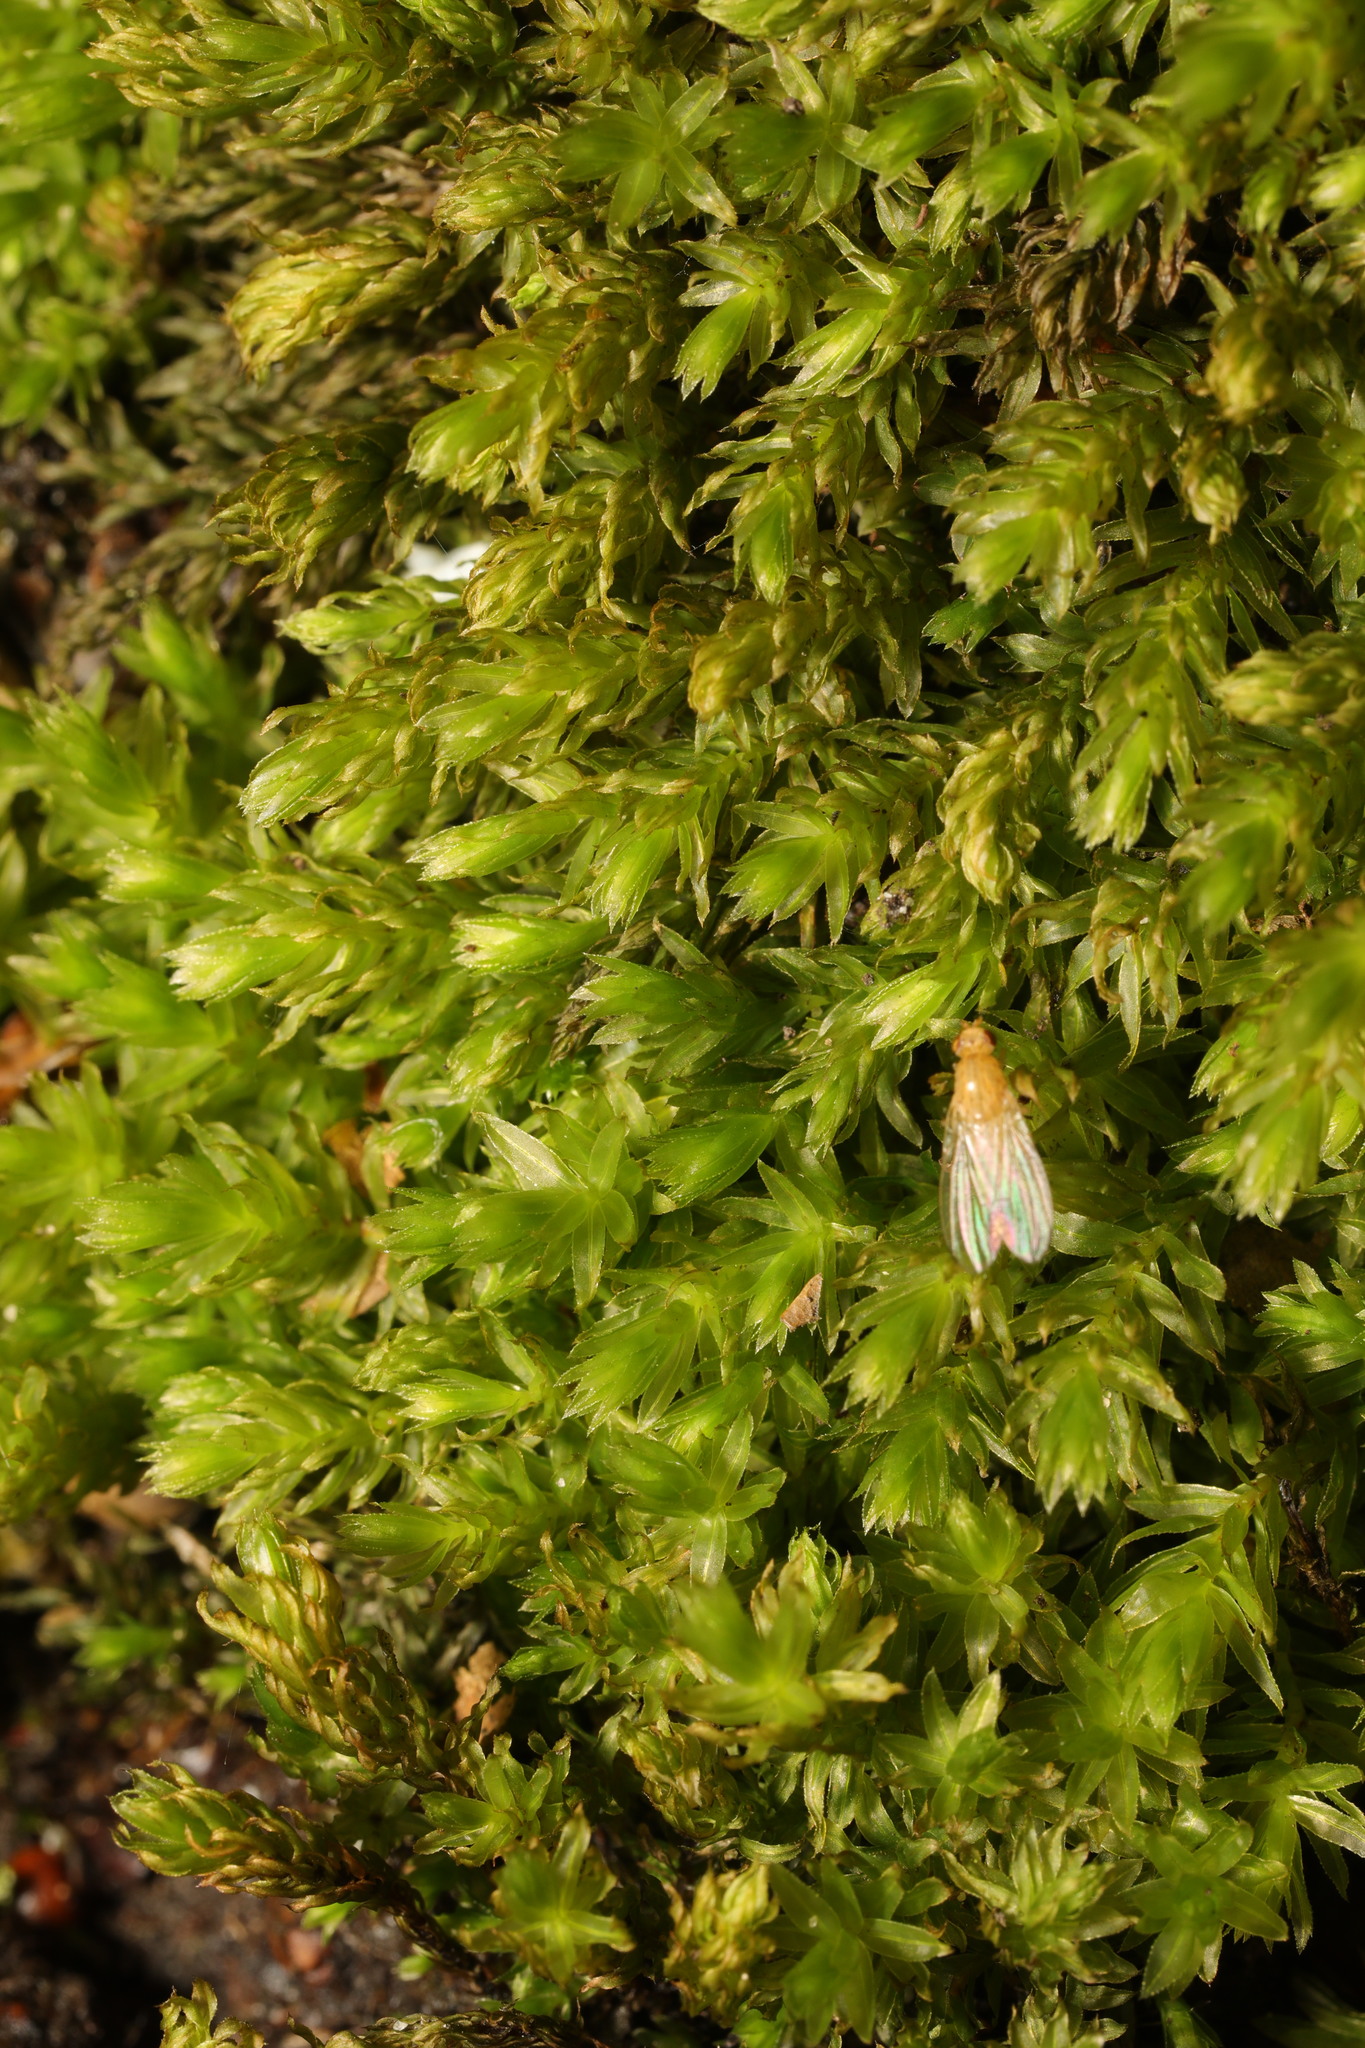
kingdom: Plantae
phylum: Bryophyta
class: Bryopsida
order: Bryales
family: Mniaceae
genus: Mnium
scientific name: Mnium hornum
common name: Swan's-neck leafy moss
